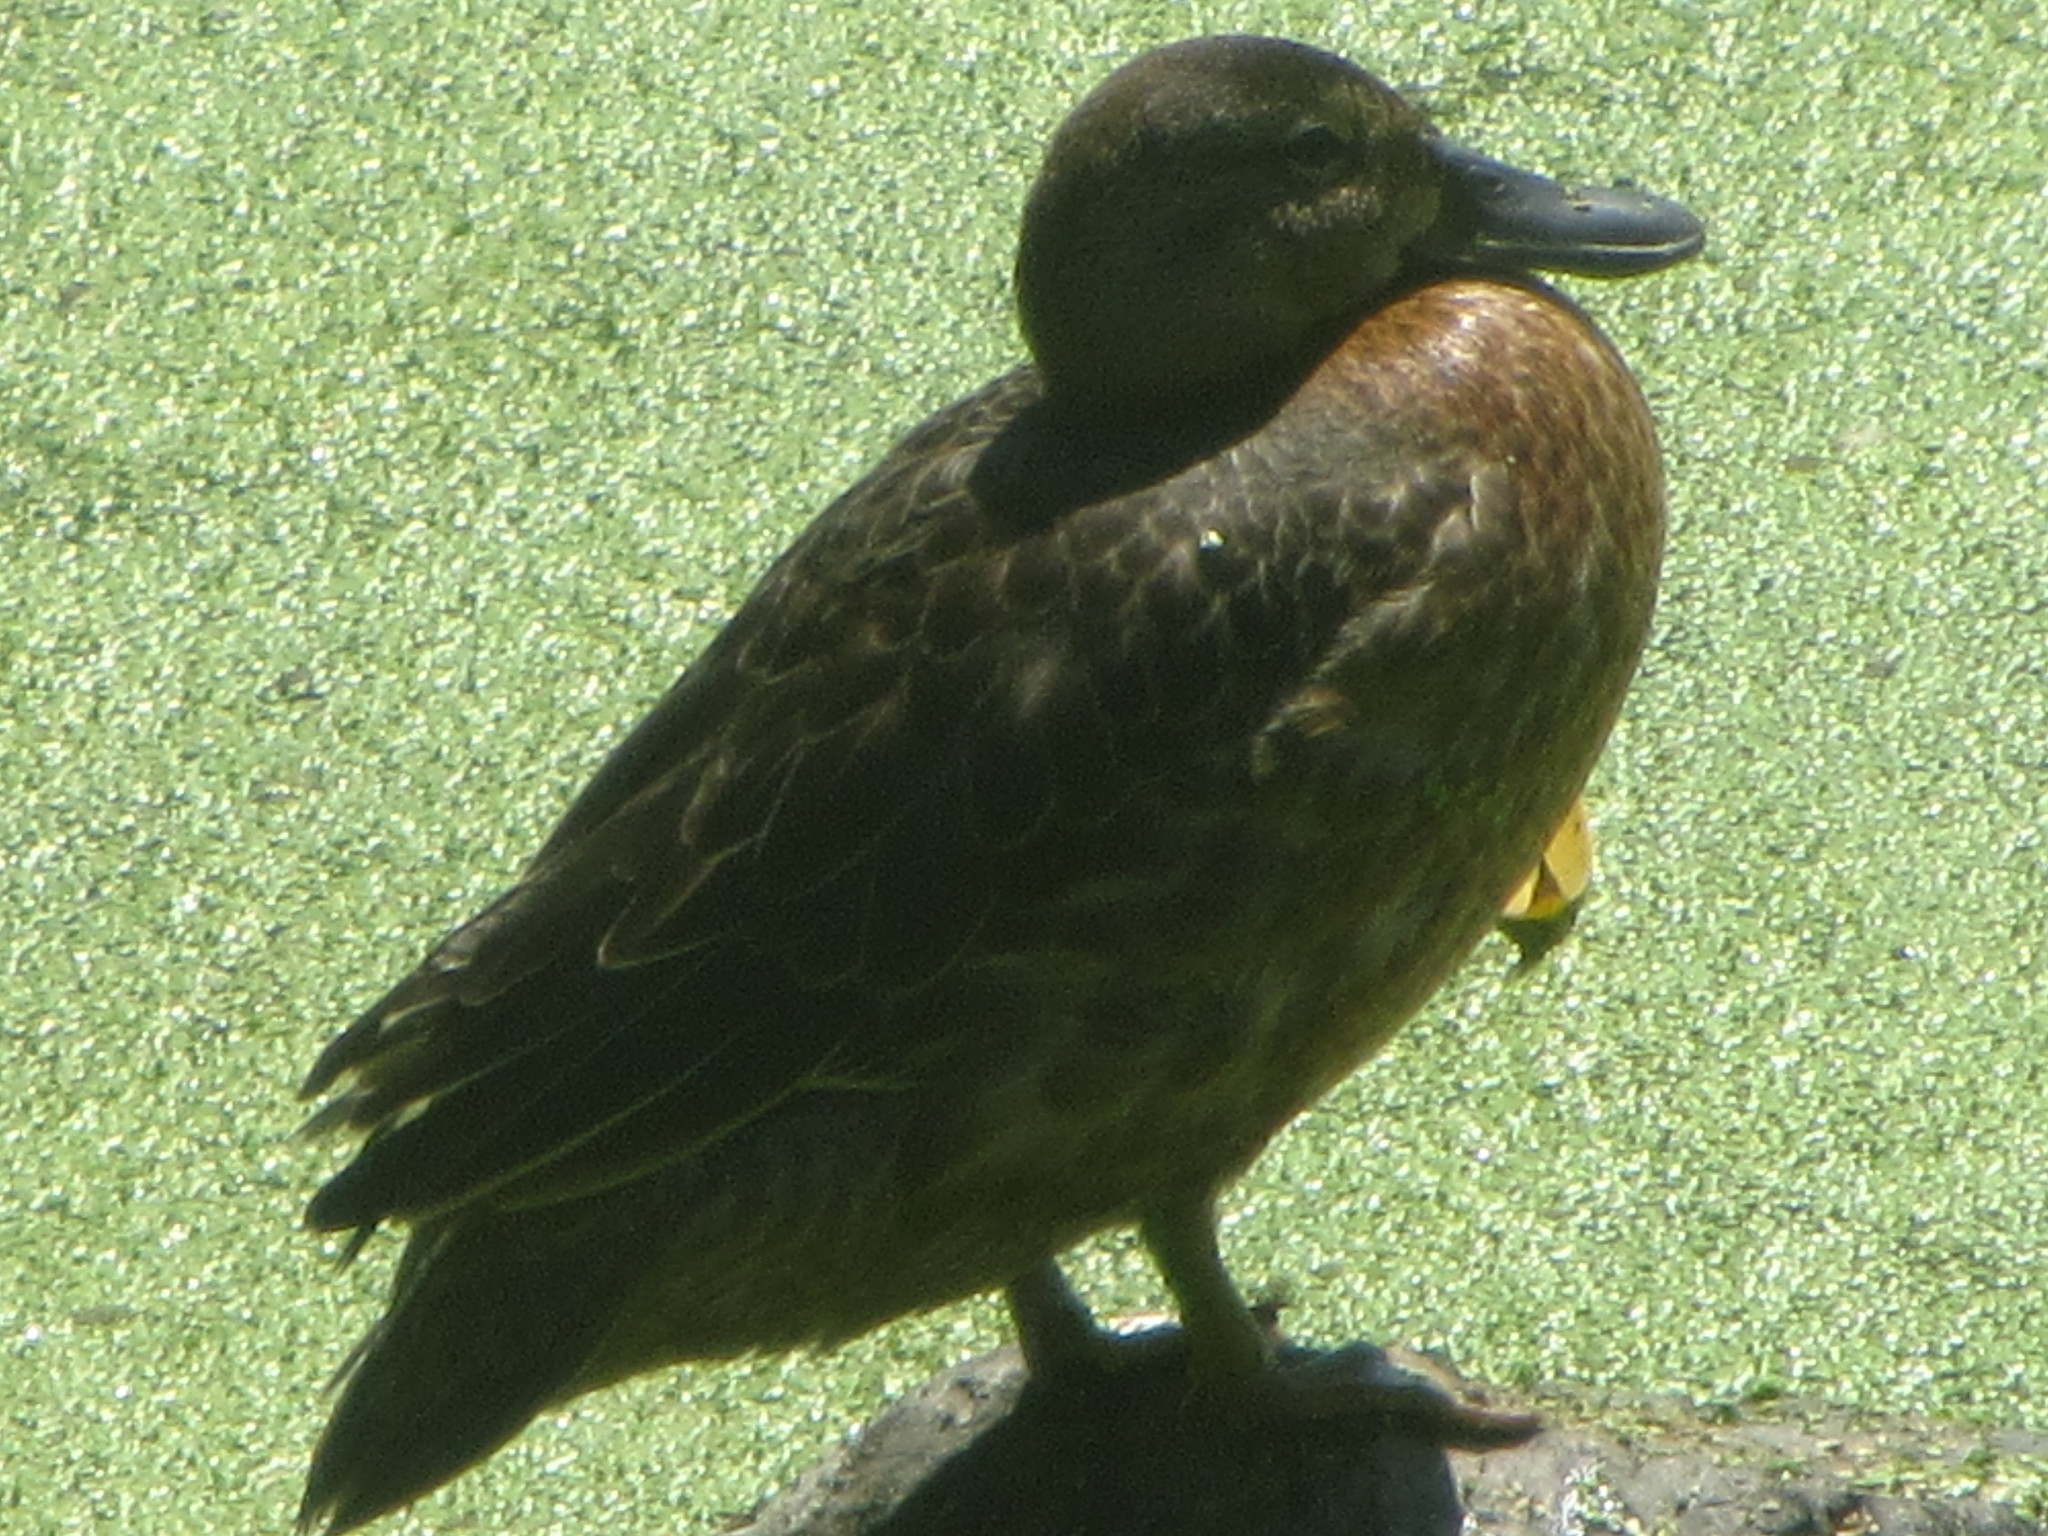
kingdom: Animalia
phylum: Chordata
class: Aves
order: Anseriformes
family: Anatidae
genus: Spatula
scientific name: Spatula cyanoptera
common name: Cinnamon teal
